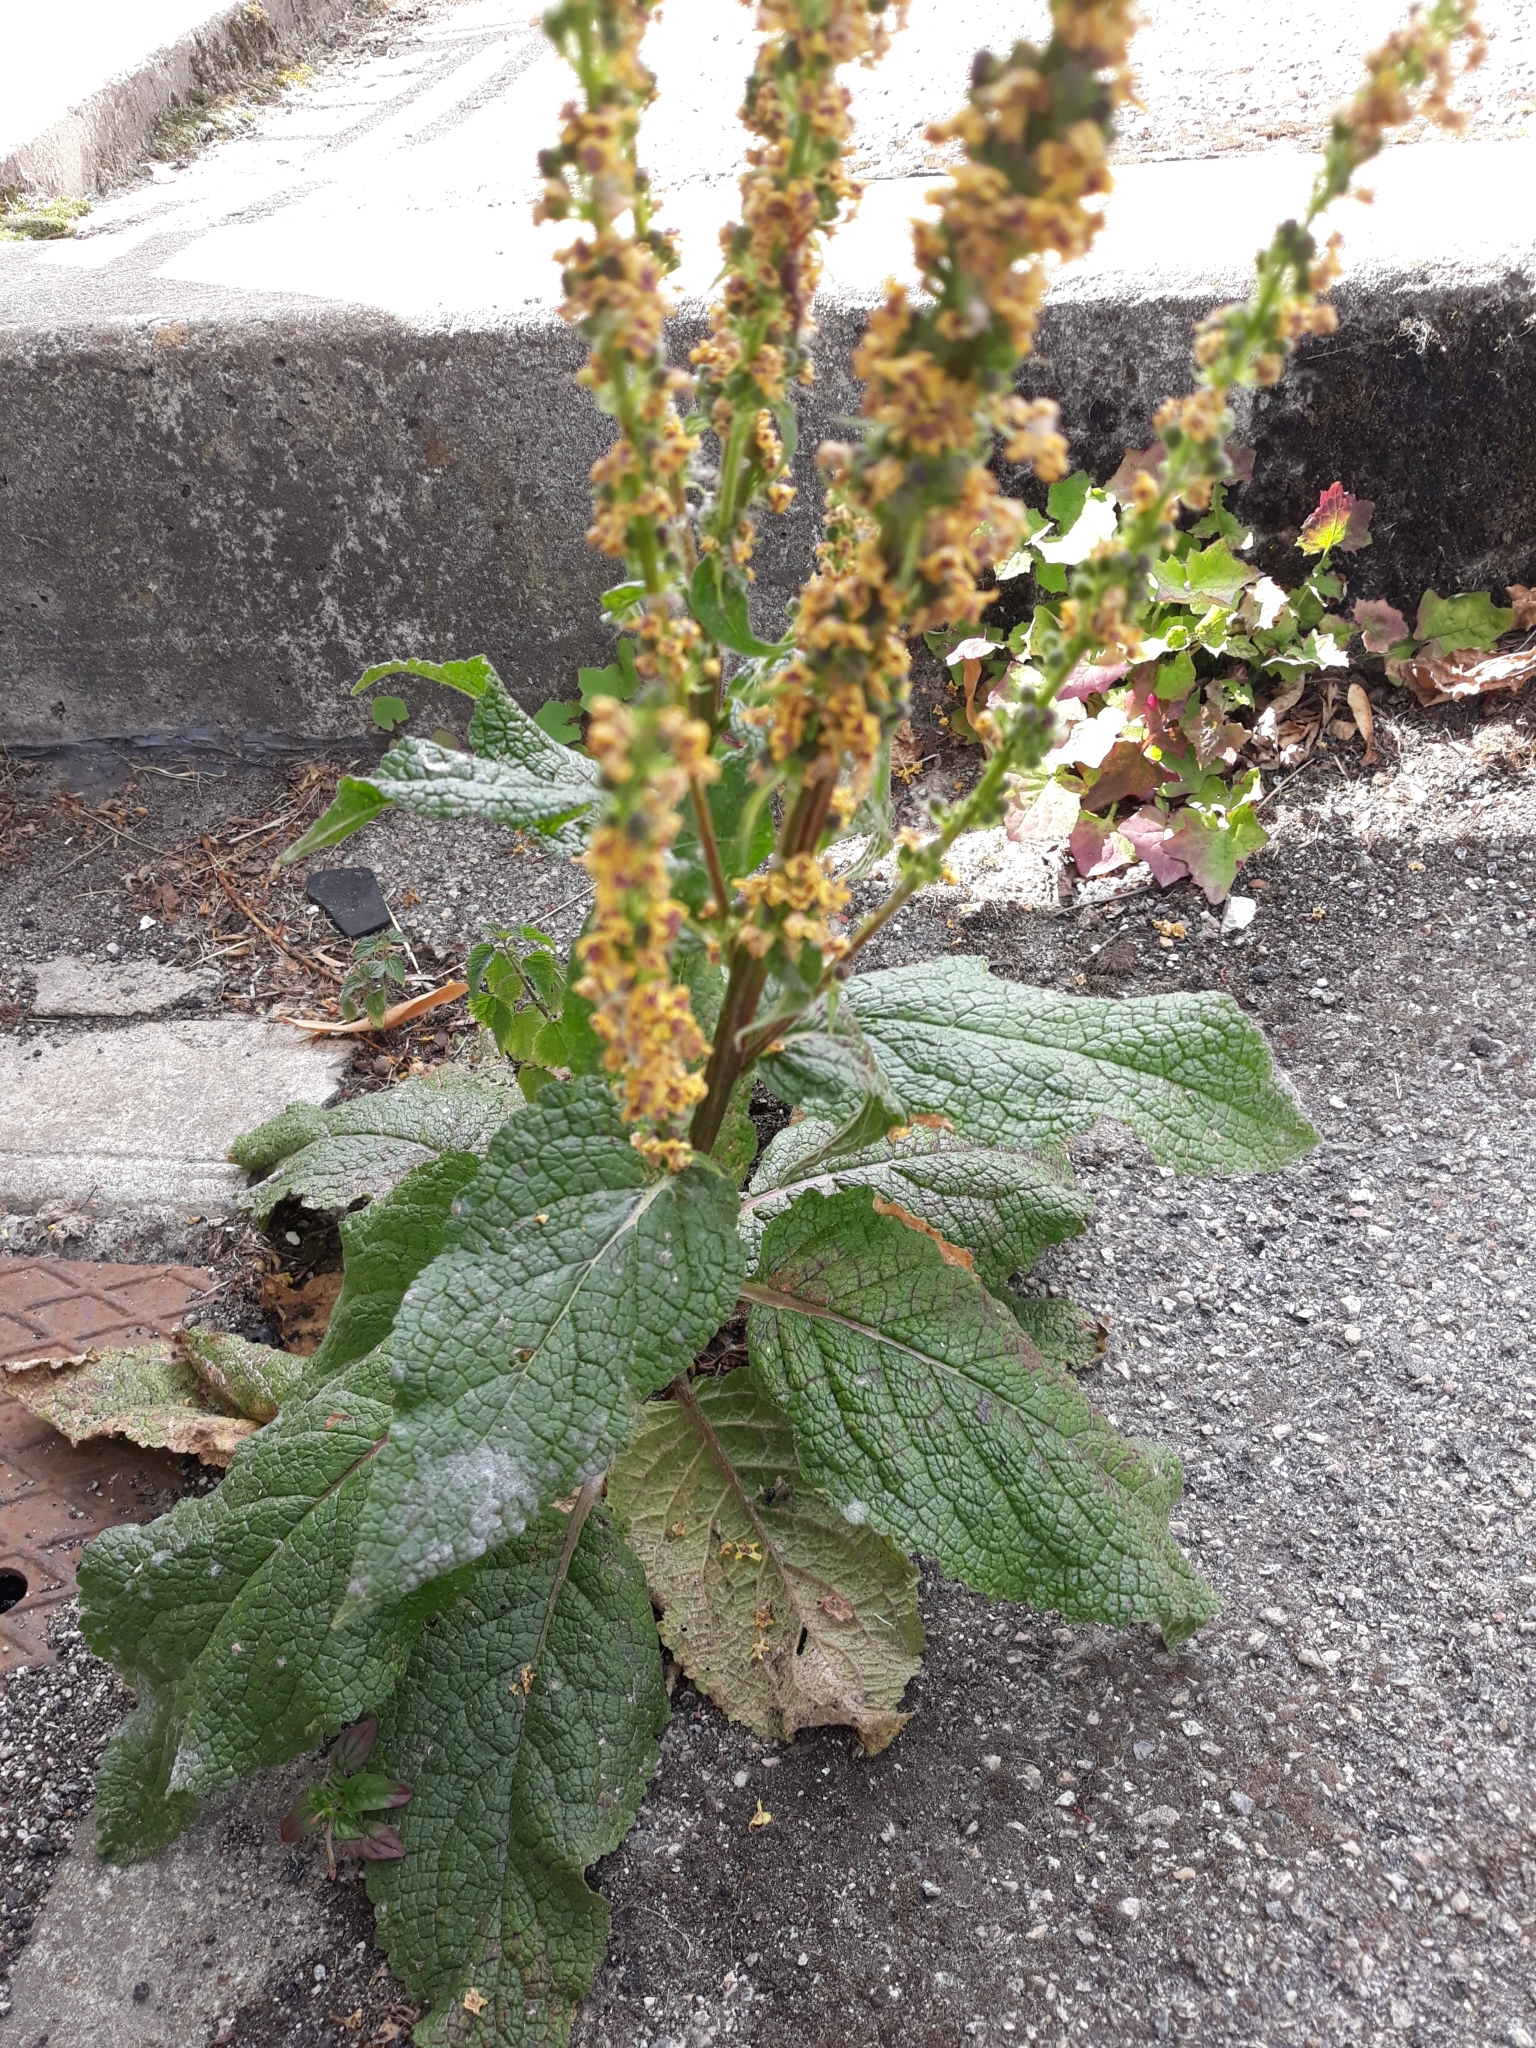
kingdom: Plantae
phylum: Tracheophyta
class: Magnoliopsida
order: Lamiales
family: Scrophulariaceae
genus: Verbascum
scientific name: Verbascum nigrum
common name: Dark mullein
